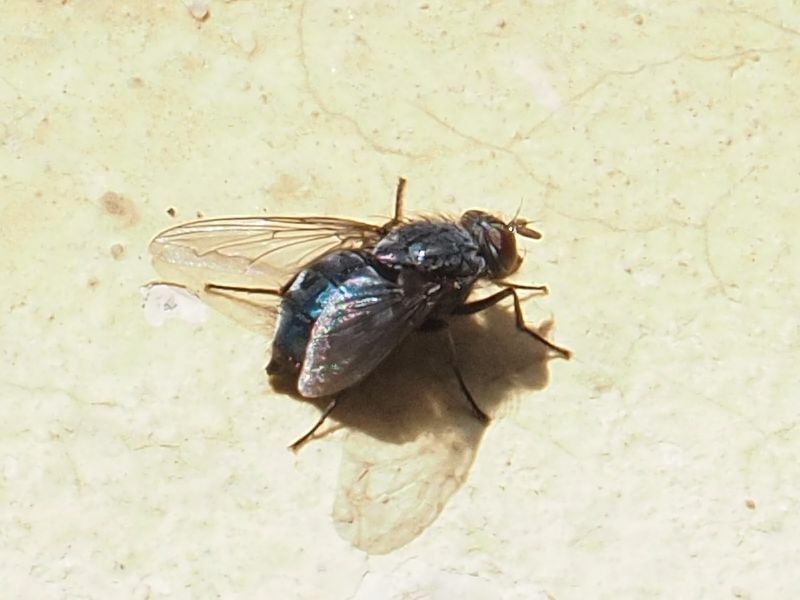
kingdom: Animalia
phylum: Arthropoda
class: Insecta
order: Diptera
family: Calliphoridae
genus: Calliphora
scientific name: Calliphora vicina
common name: Common blow flie
